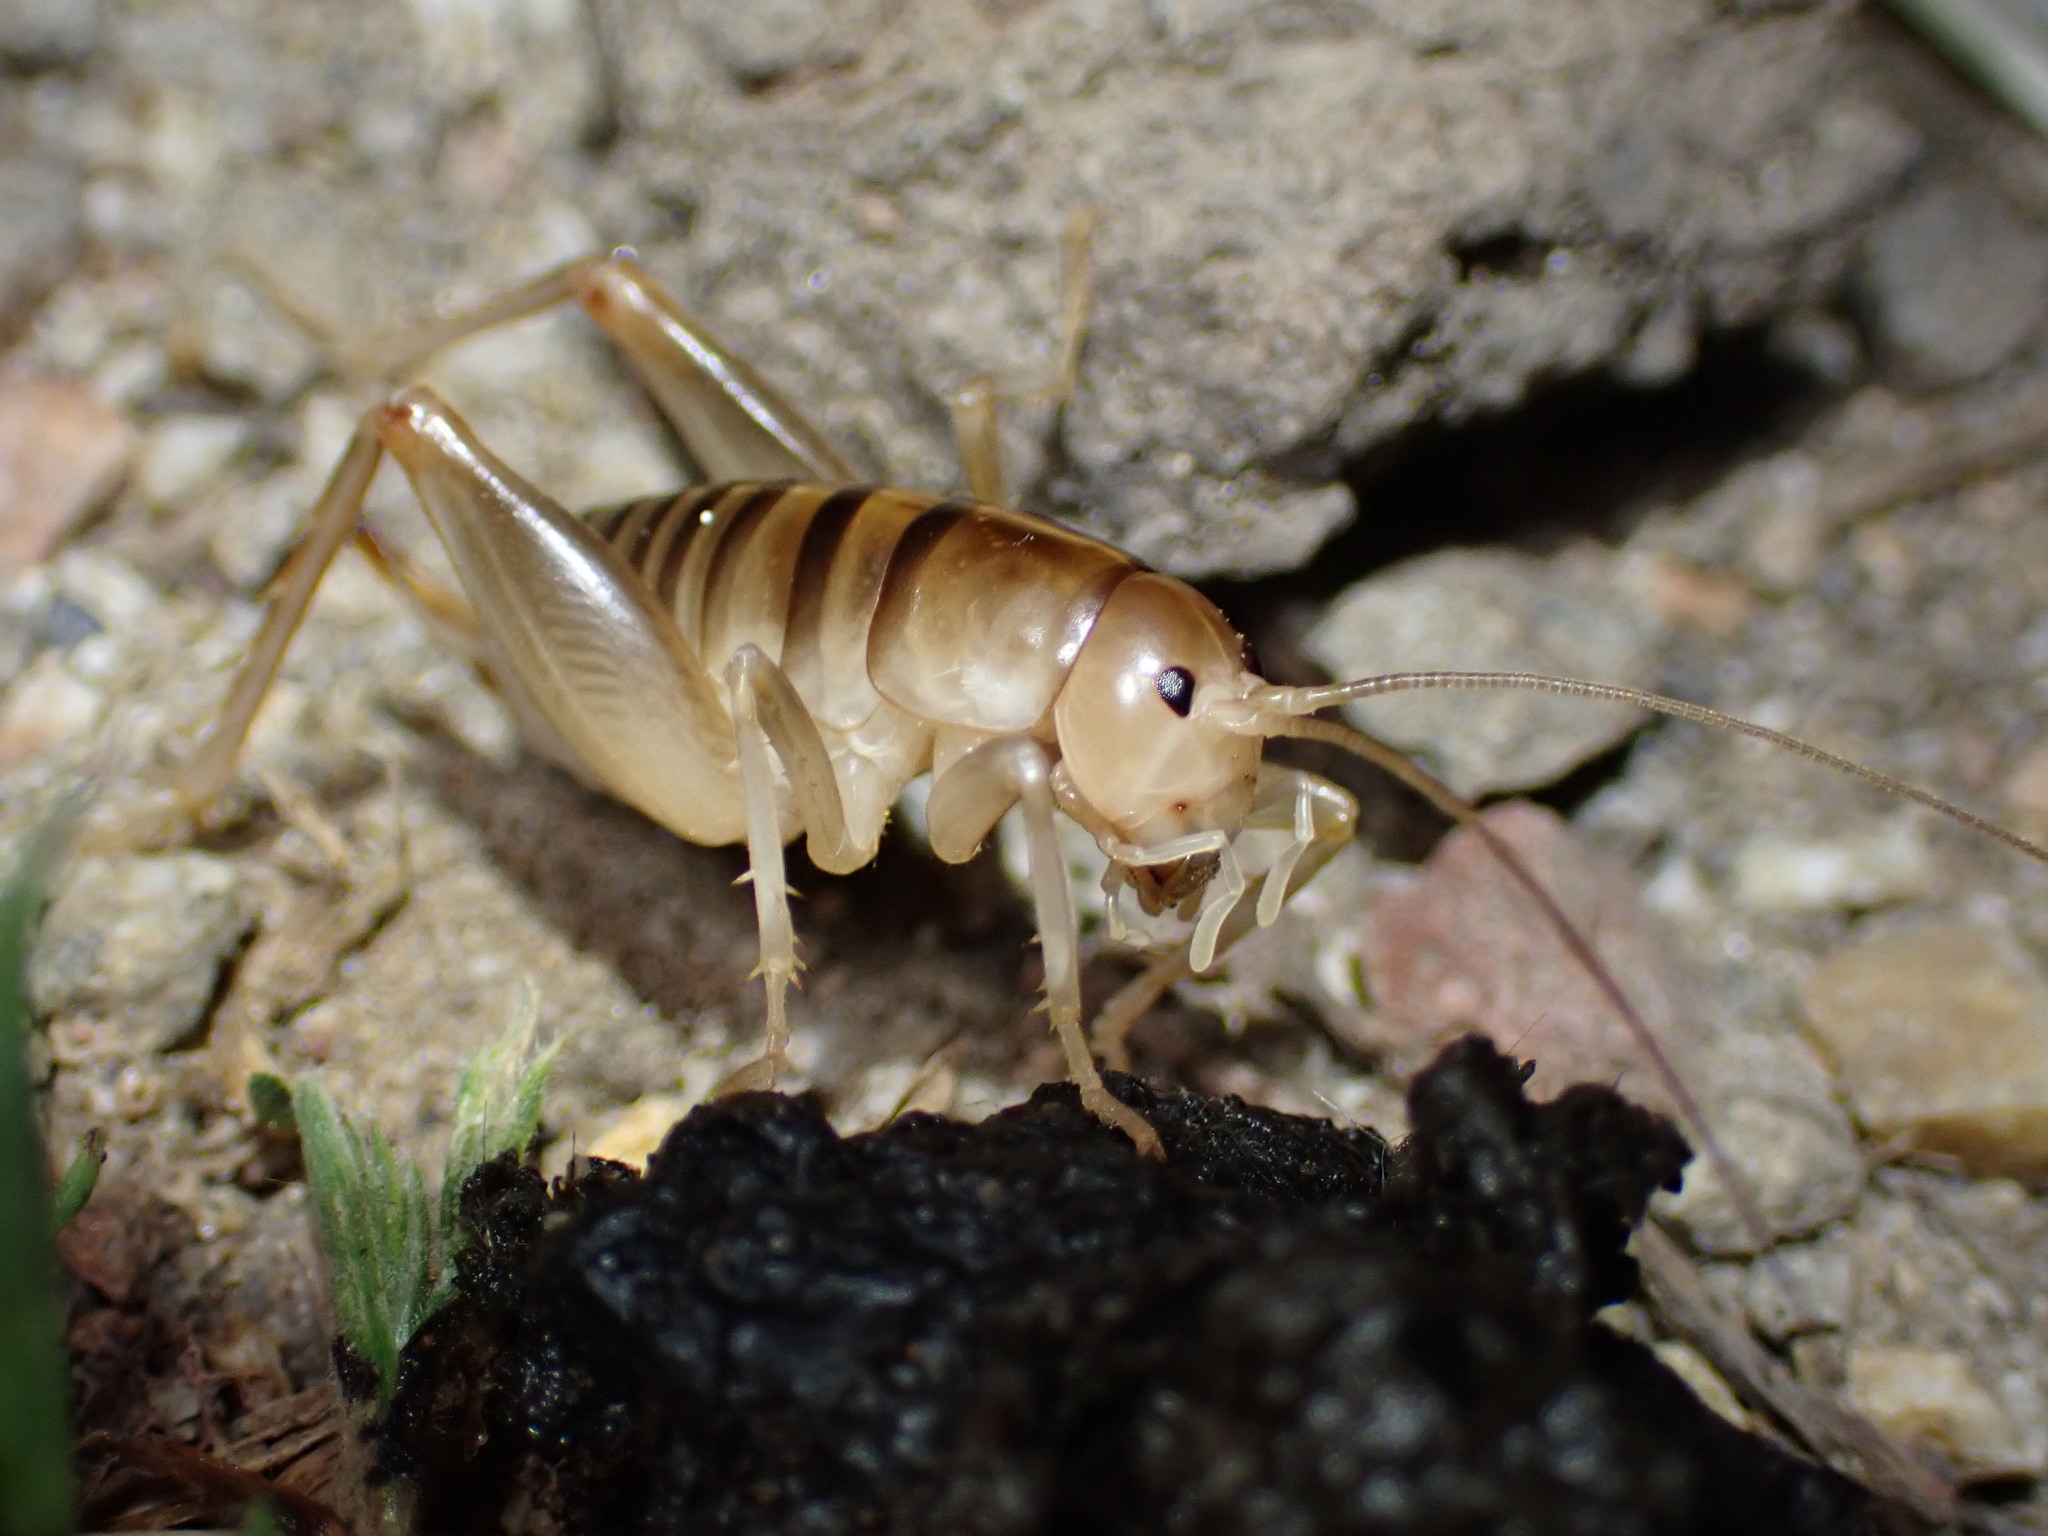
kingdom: Animalia
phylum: Arthropoda
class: Insecta
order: Orthoptera
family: Rhaphidophoridae
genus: Ceuthophilus
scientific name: Ceuthophilus californianus
